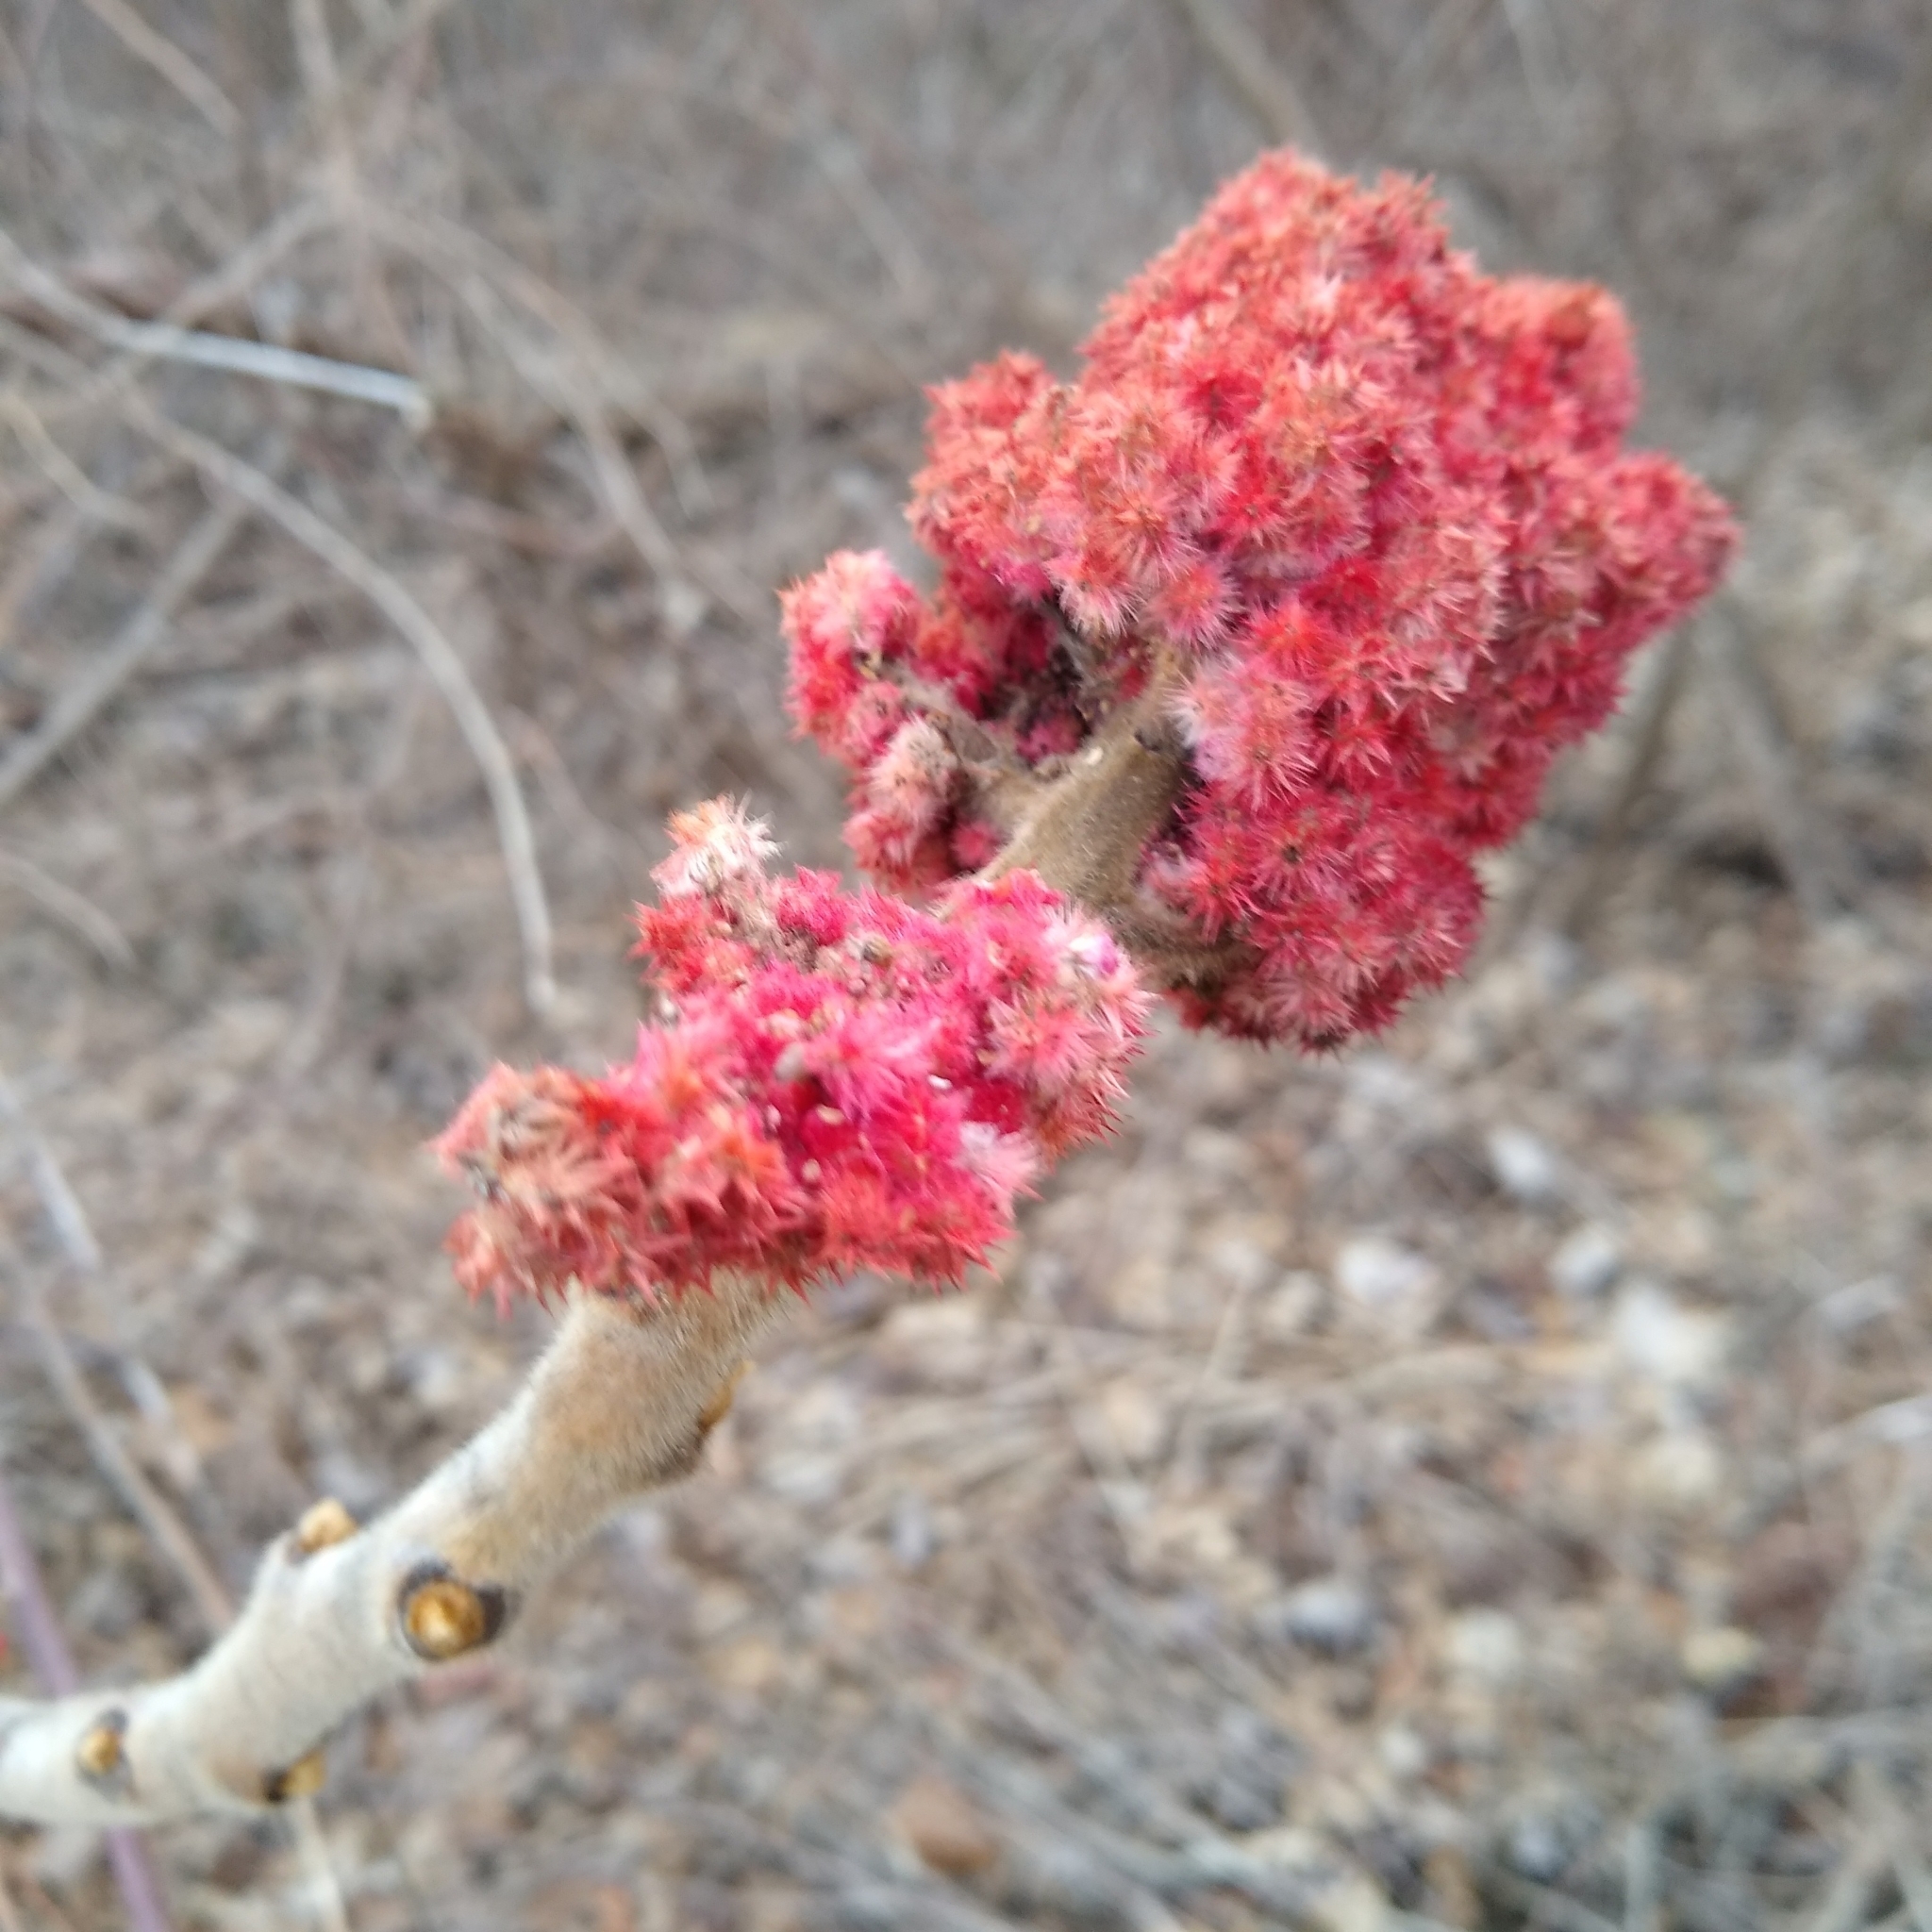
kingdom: Plantae
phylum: Tracheophyta
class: Magnoliopsida
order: Sapindales
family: Anacardiaceae
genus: Rhus
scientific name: Rhus typhina
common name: Staghorn sumac
